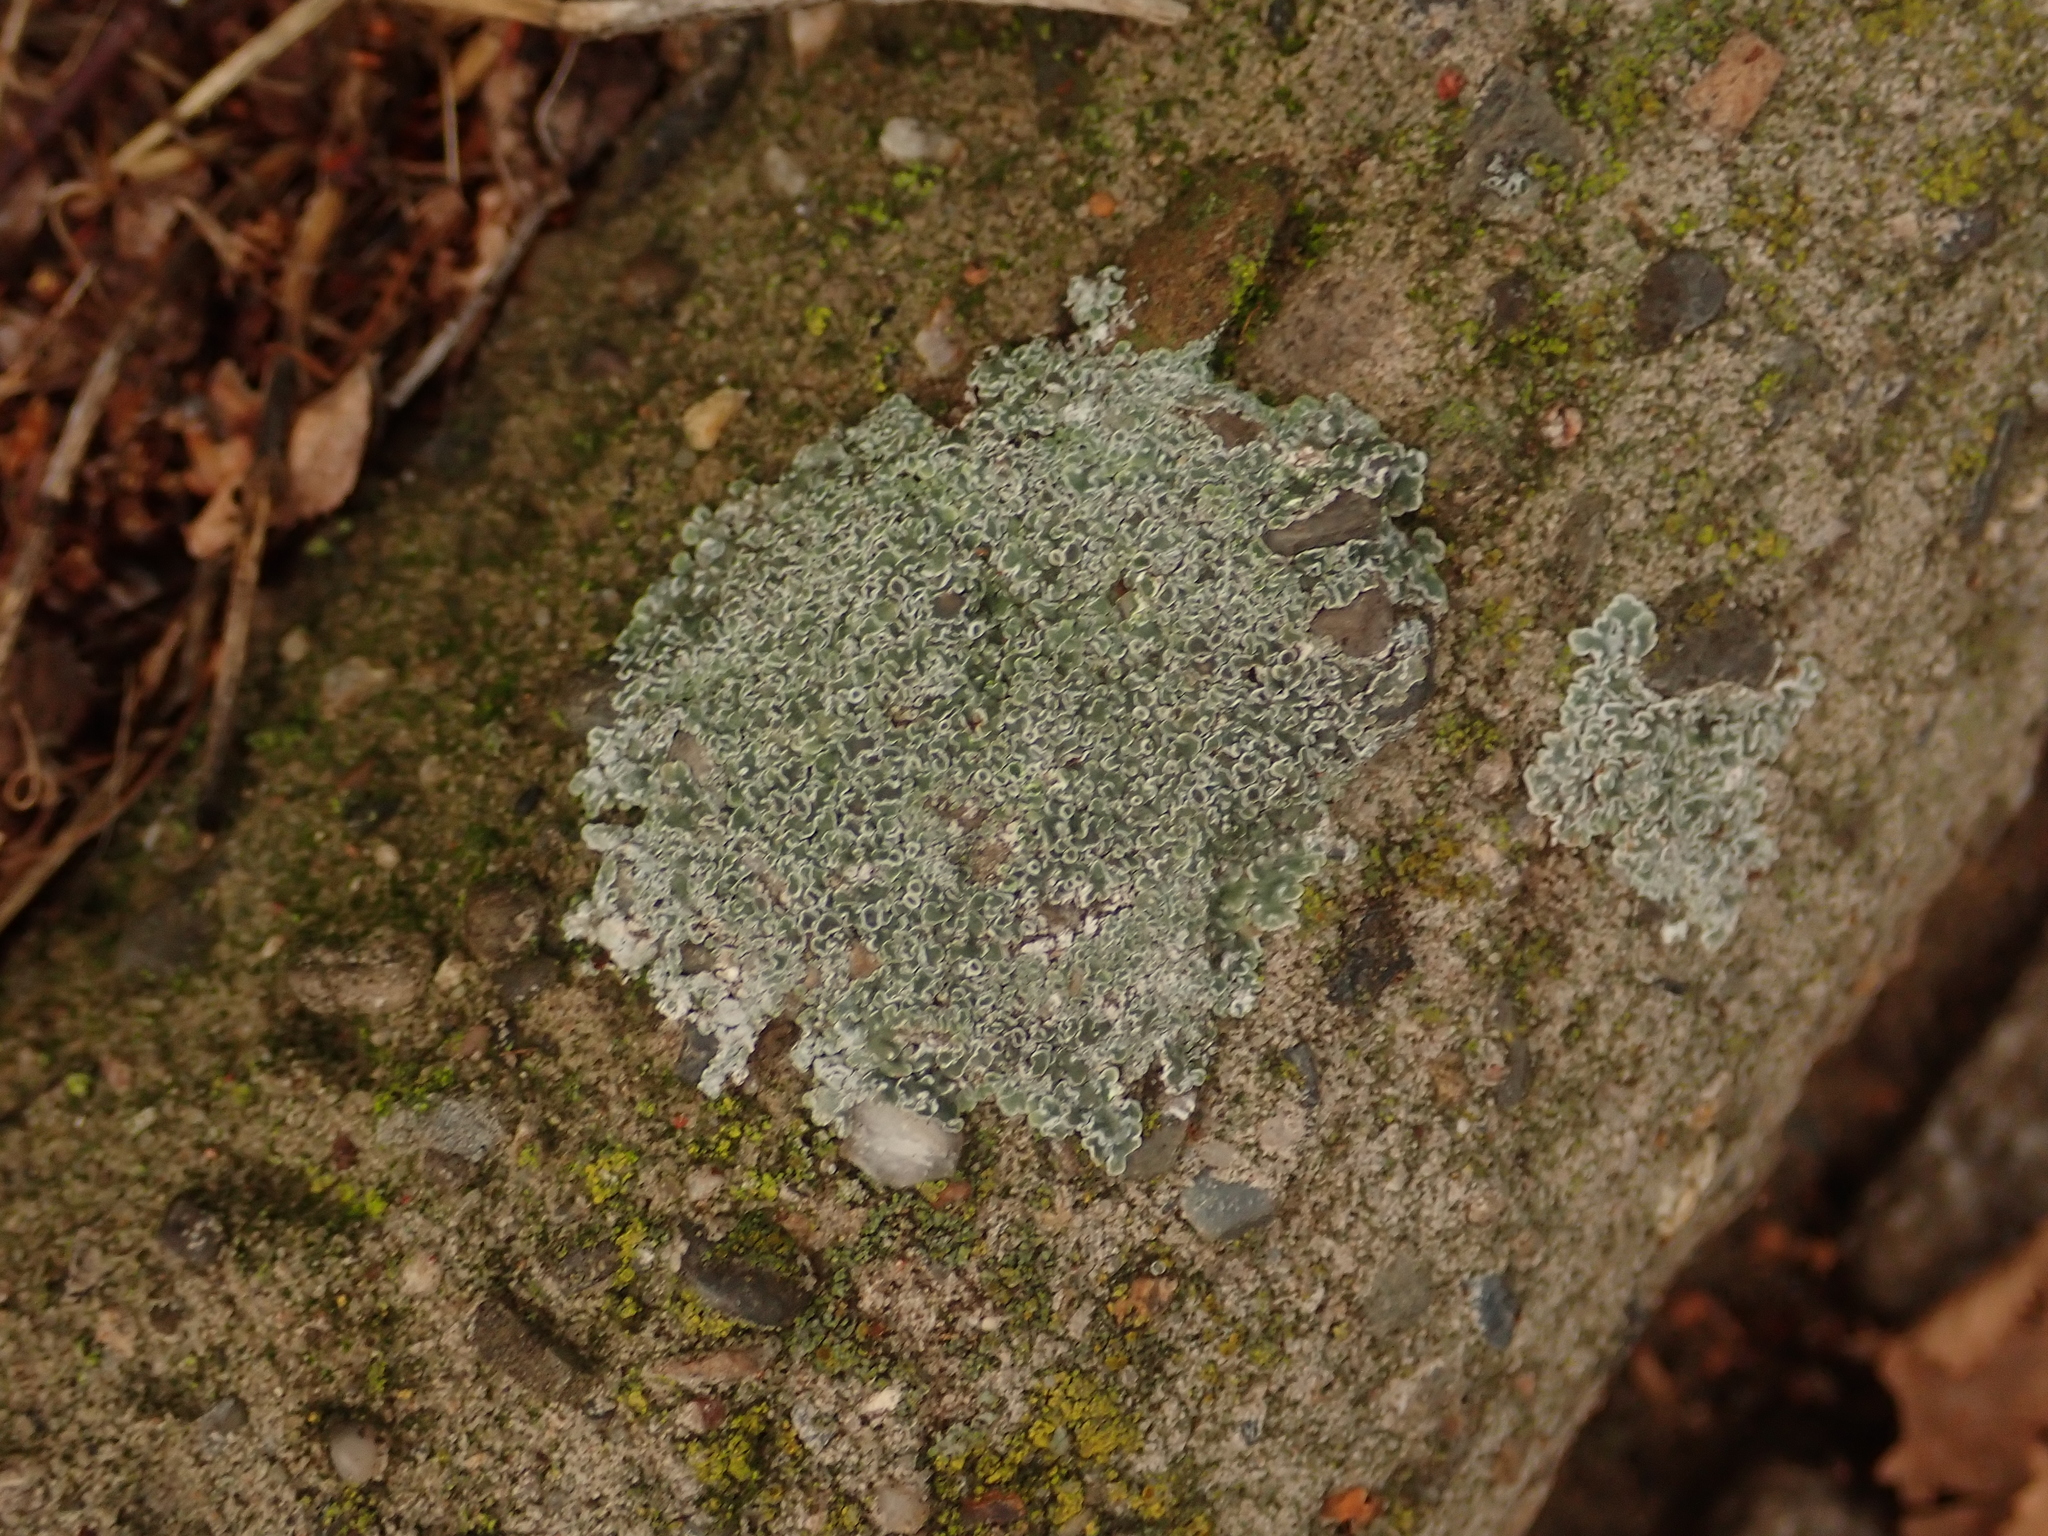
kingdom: Fungi
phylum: Ascomycota
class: Lecanoromycetes
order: Lecanorales
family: Lecanoraceae
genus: Protoparmeliopsis
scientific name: Protoparmeliopsis muralis
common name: Stonewall rim lichen
